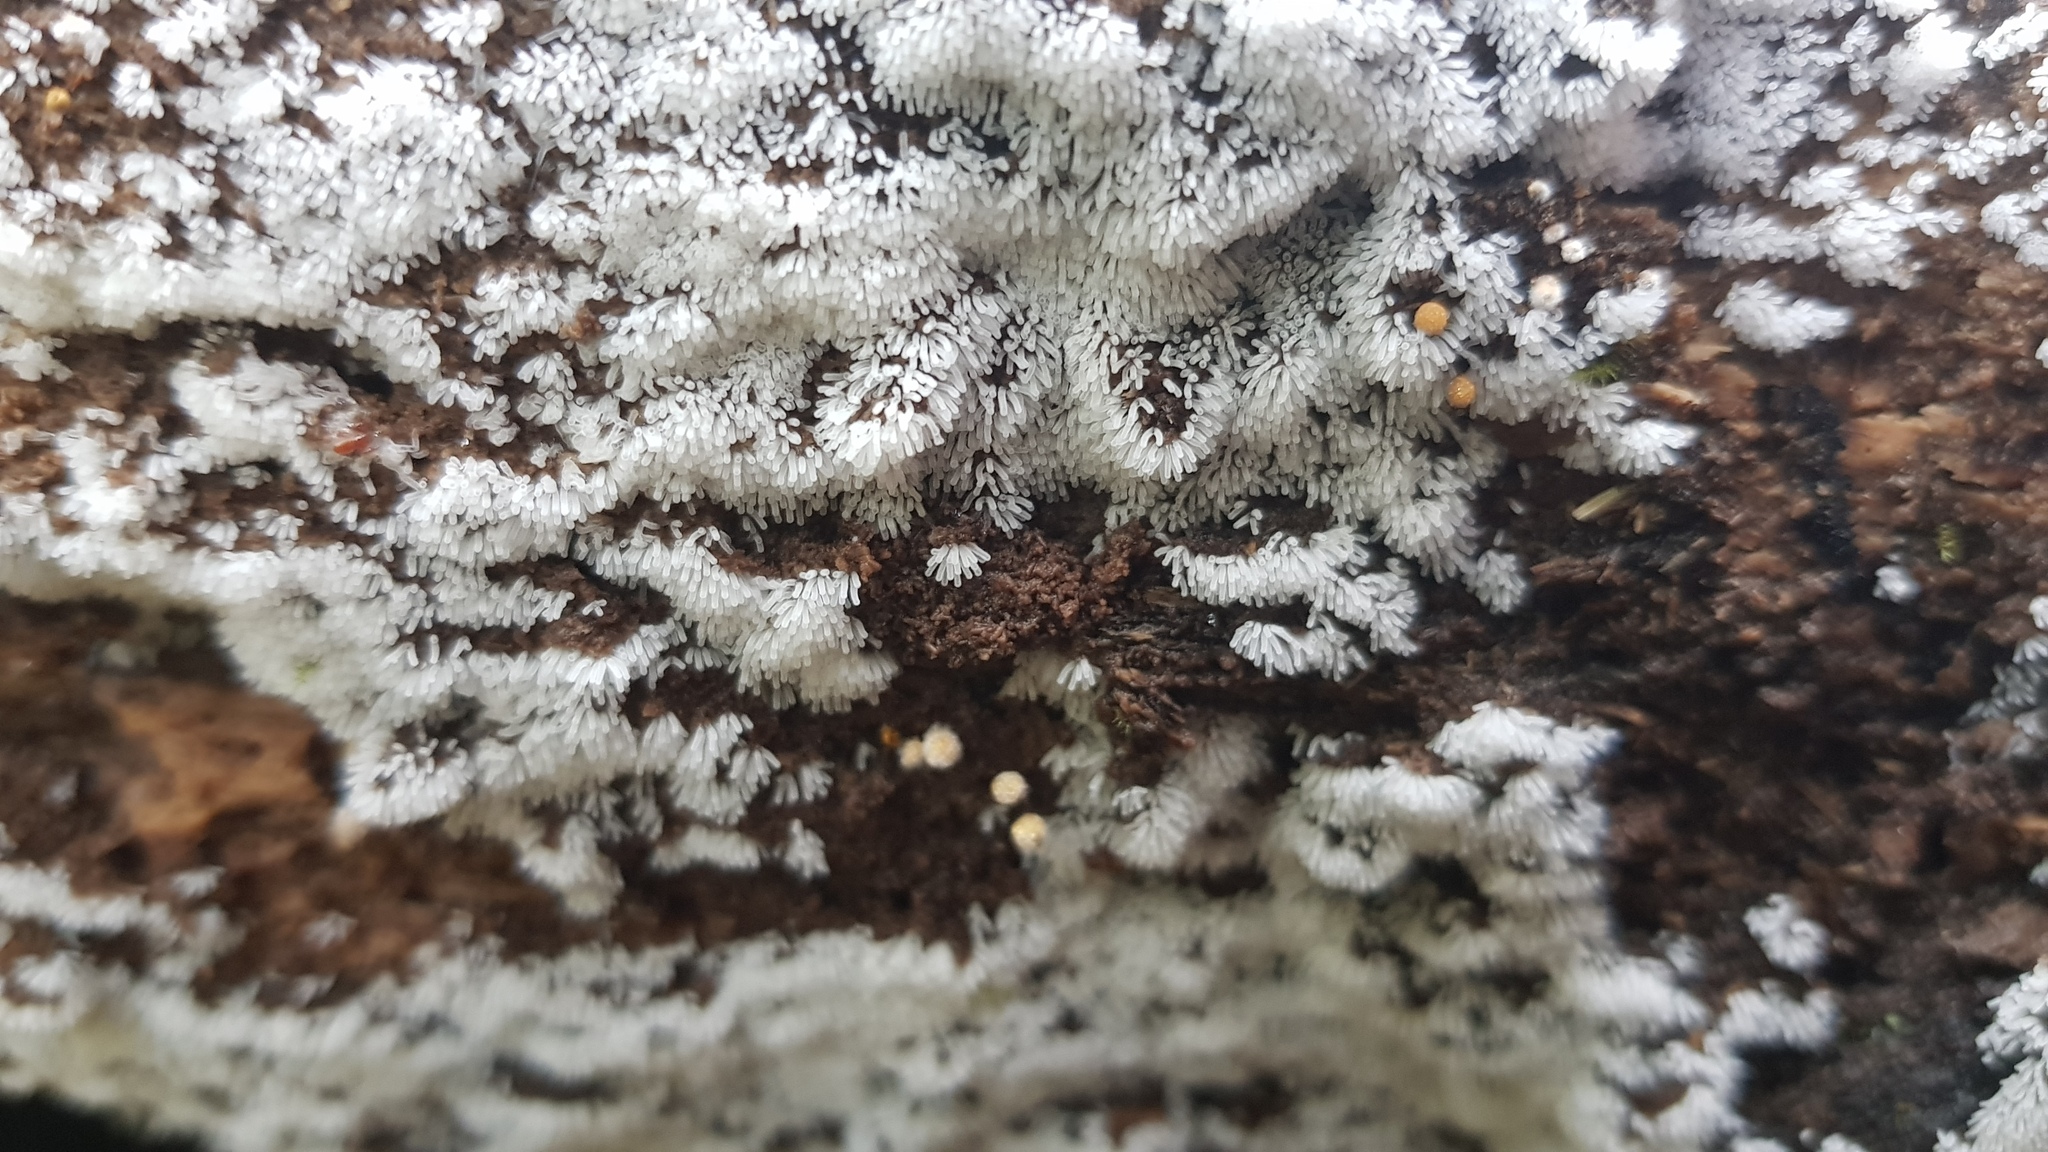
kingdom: Protozoa
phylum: Mycetozoa
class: Protosteliomycetes
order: Ceratiomyxales
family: Ceratiomyxaceae
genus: Ceratiomyxa
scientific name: Ceratiomyxa fruticulosa
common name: Honeycomb coral slime mold
